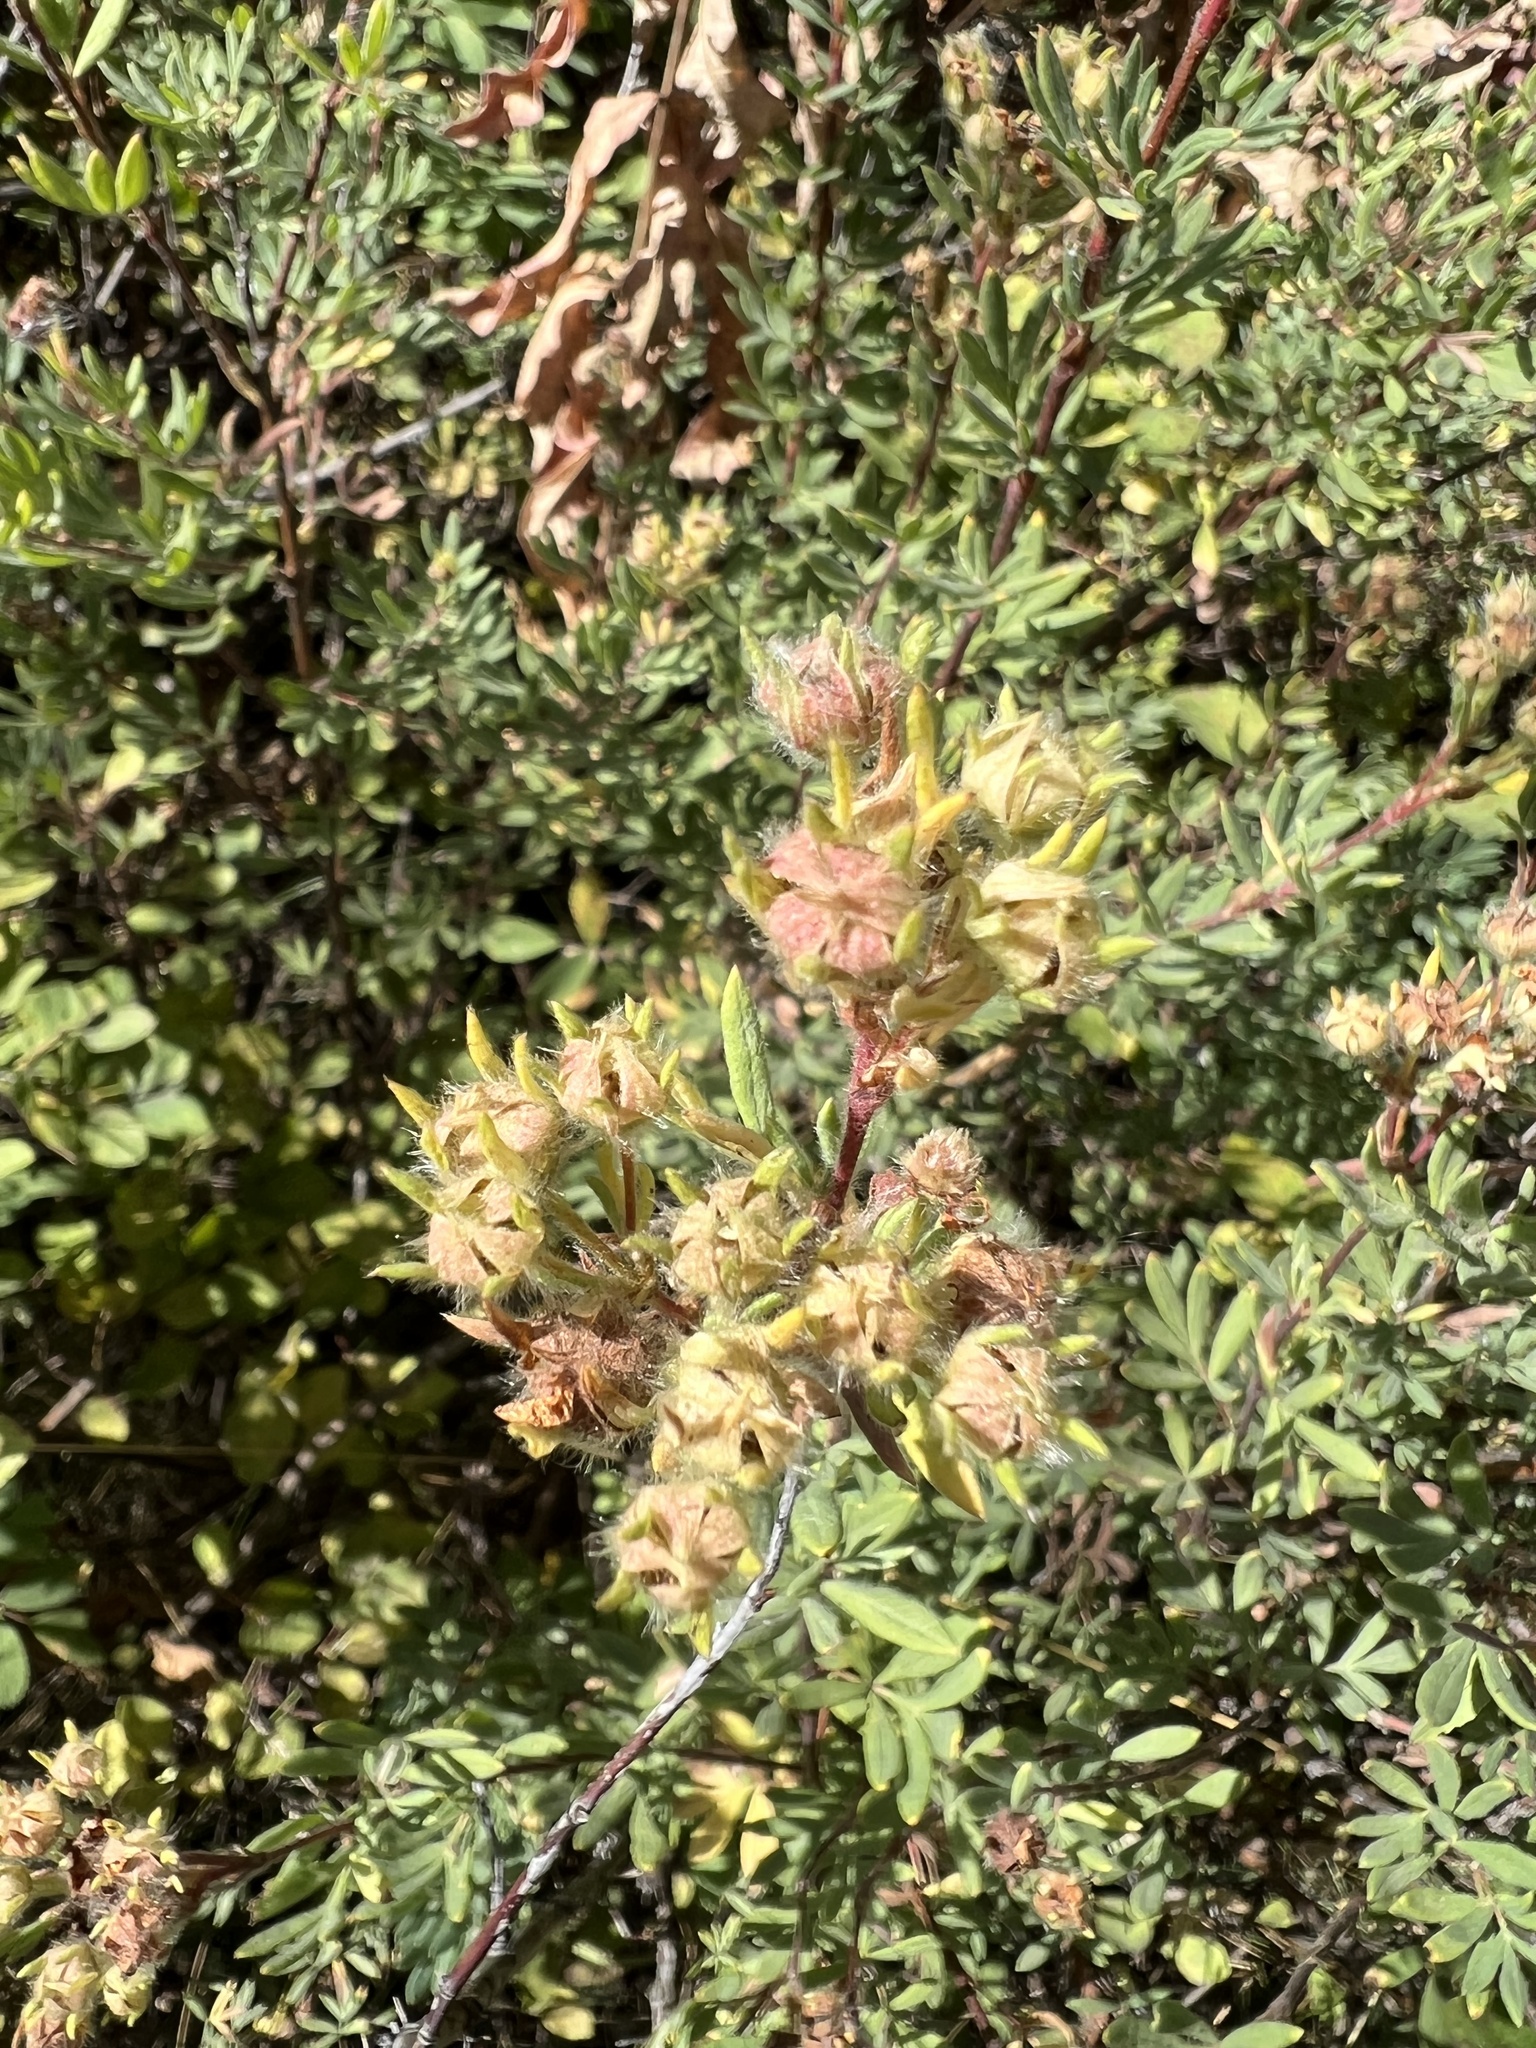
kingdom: Plantae
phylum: Tracheophyta
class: Magnoliopsida
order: Rosales
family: Rosaceae
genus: Dasiphora
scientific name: Dasiphora fruticosa
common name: Shrubby cinquefoil
